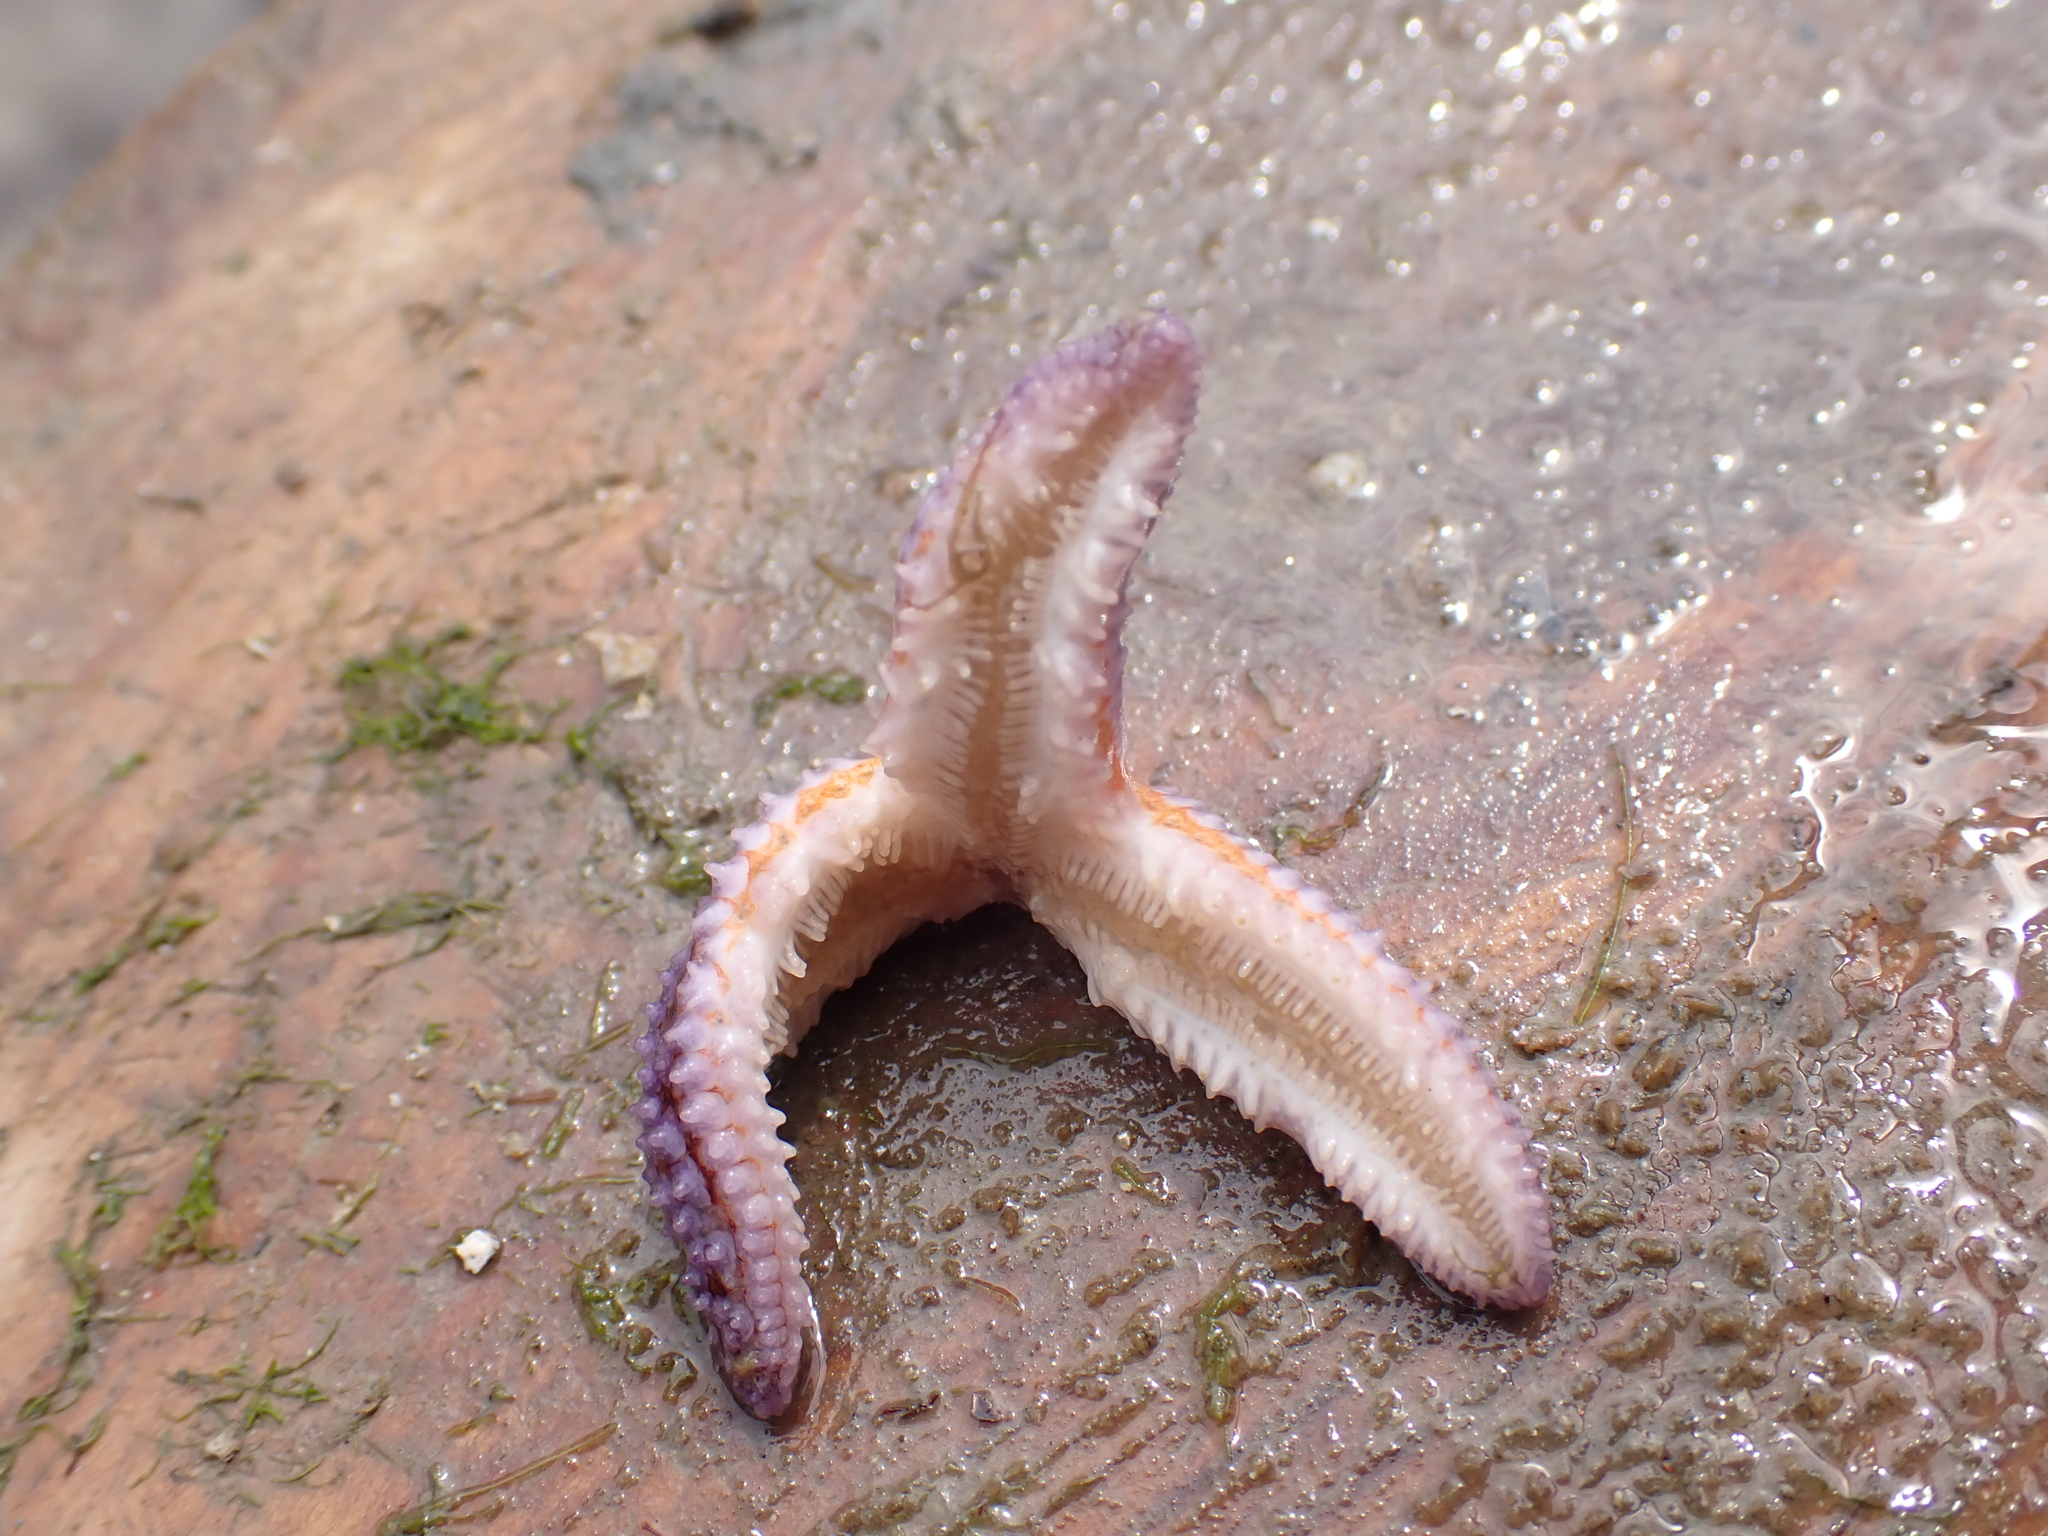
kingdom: Animalia
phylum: Echinodermata
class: Asteroidea
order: Forcipulatida
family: Asteriidae
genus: Asterias
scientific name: Asterias rubens
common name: Common starfish
